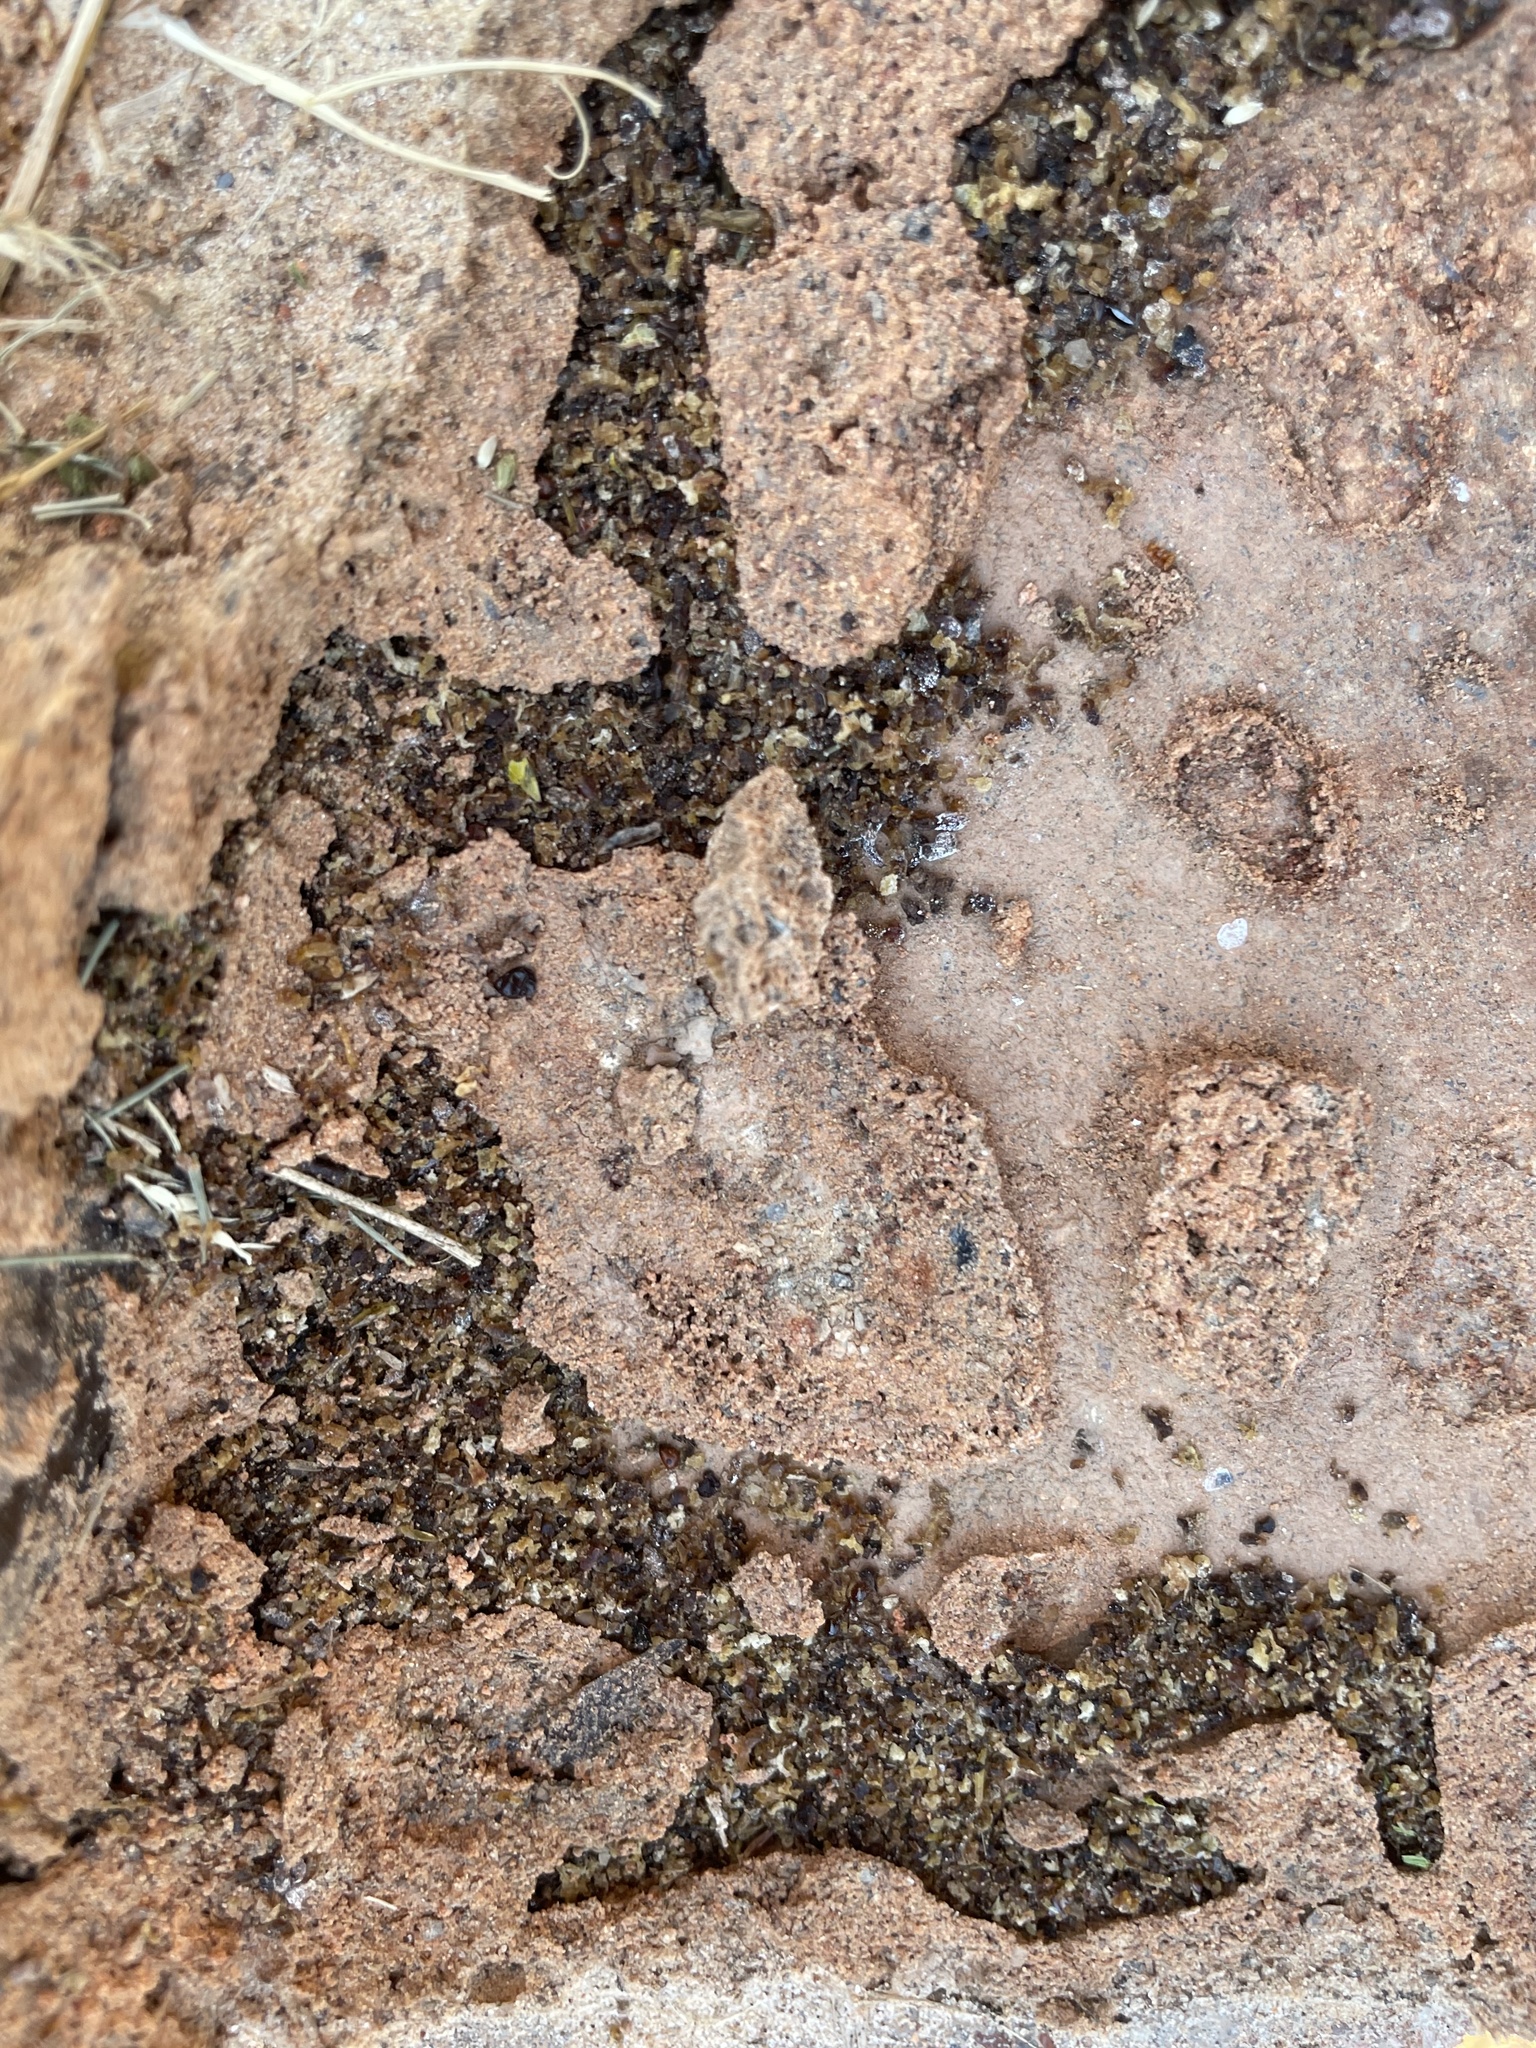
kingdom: Animalia
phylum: Arthropoda
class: Insecta
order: Hymenoptera
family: Formicidae
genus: Solenopsis
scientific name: Solenopsis invicta
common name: Red imported fire ant
